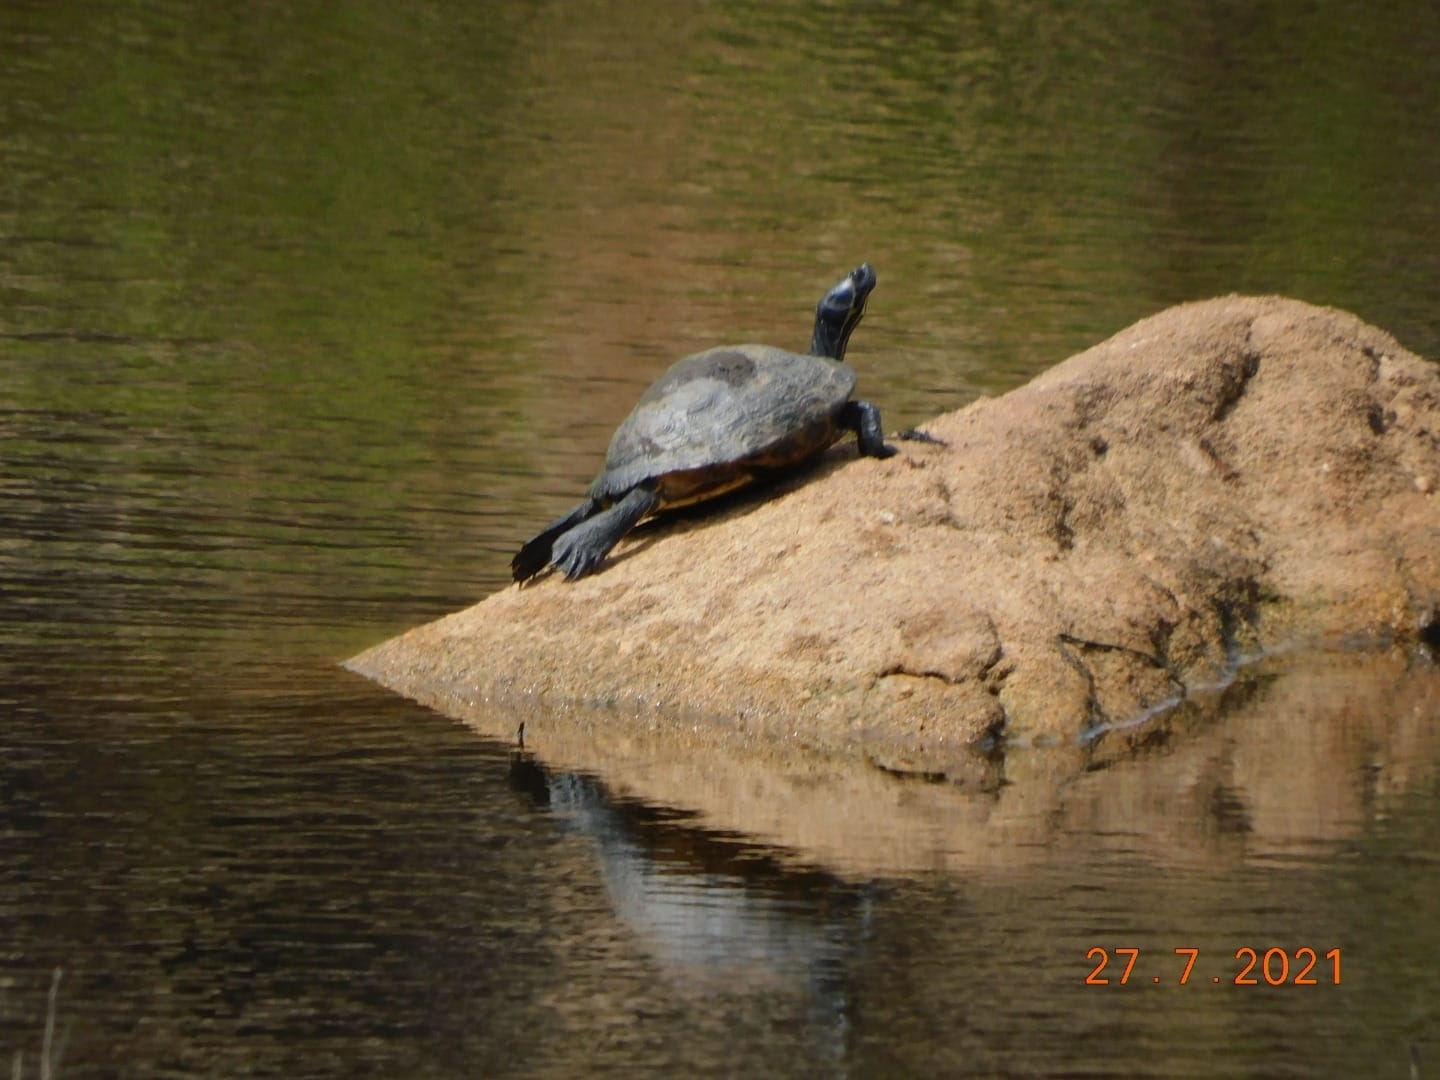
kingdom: Animalia
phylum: Chordata
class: Testudines
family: Emydidae
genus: Trachemys
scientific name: Trachemys scripta
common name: Slider
